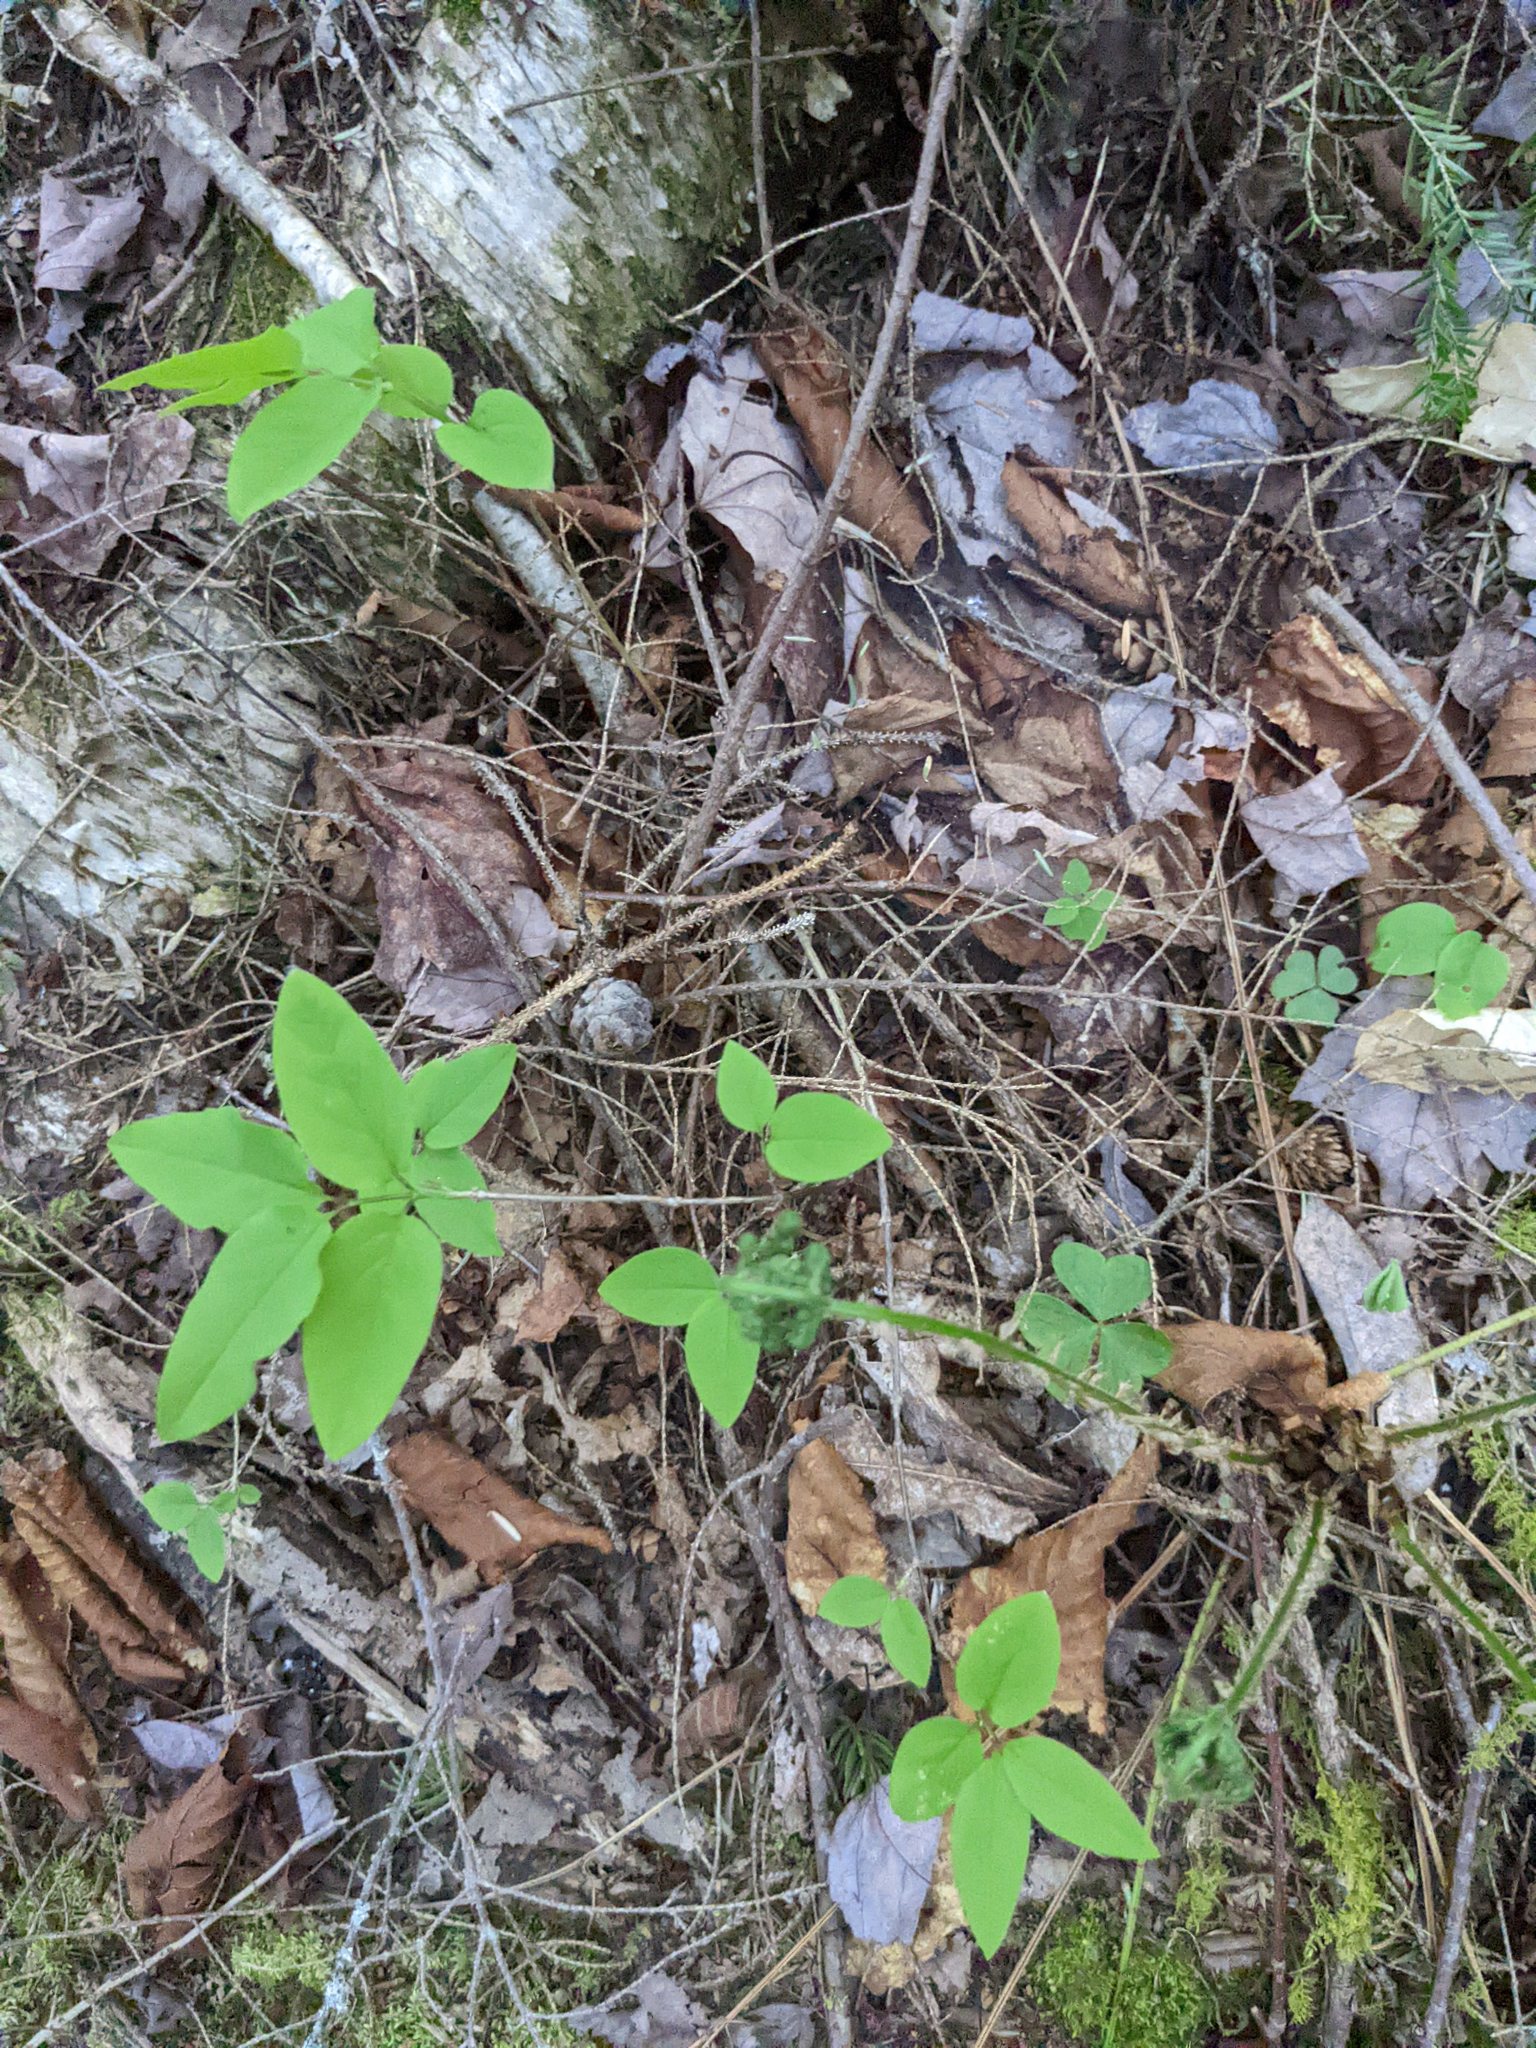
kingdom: Plantae
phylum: Tracheophyta
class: Magnoliopsida
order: Dipsacales
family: Caprifoliaceae
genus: Lonicera
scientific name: Lonicera canadensis
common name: American fly-honeysuckle
